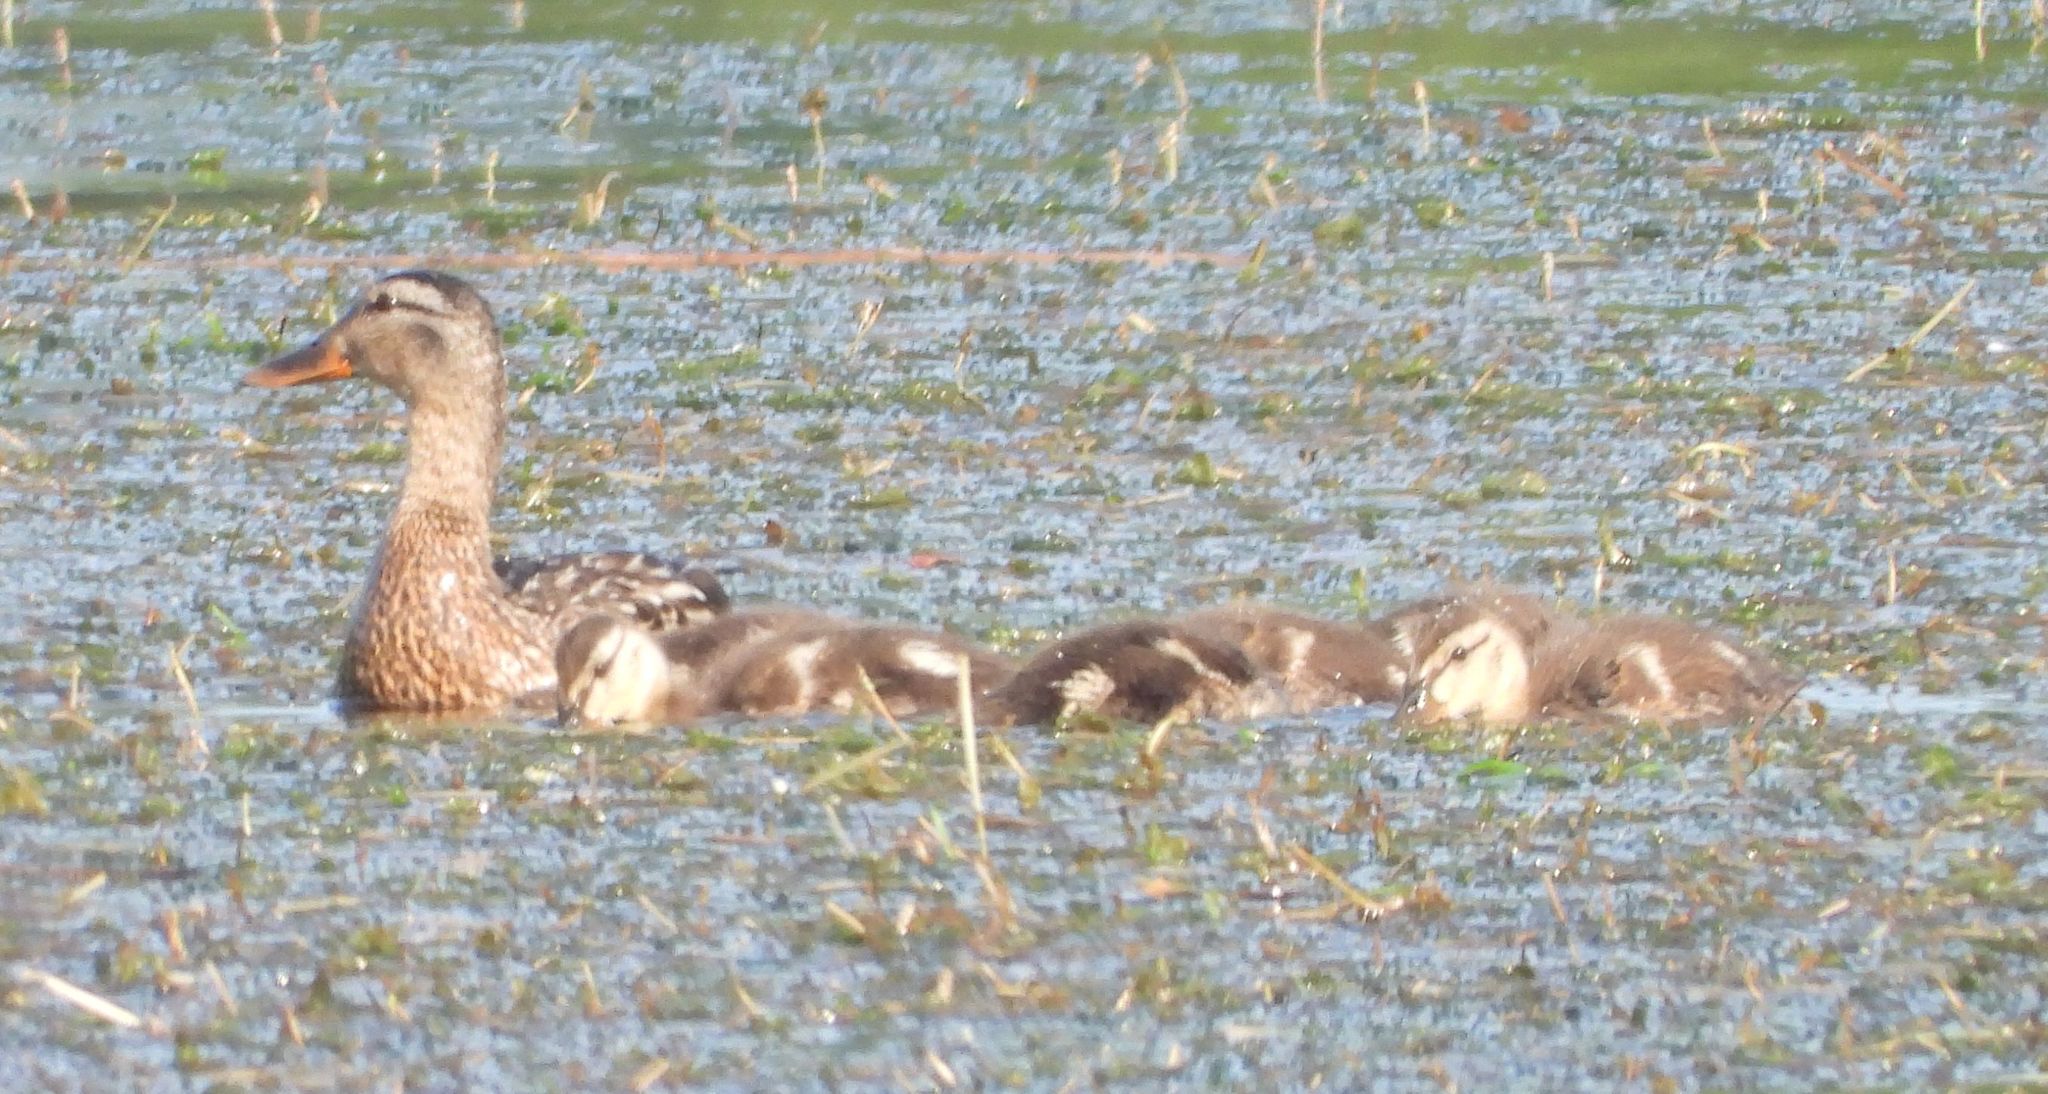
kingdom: Animalia
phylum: Chordata
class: Aves
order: Anseriformes
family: Anatidae
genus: Anas
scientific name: Anas platyrhynchos
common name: Mallard
